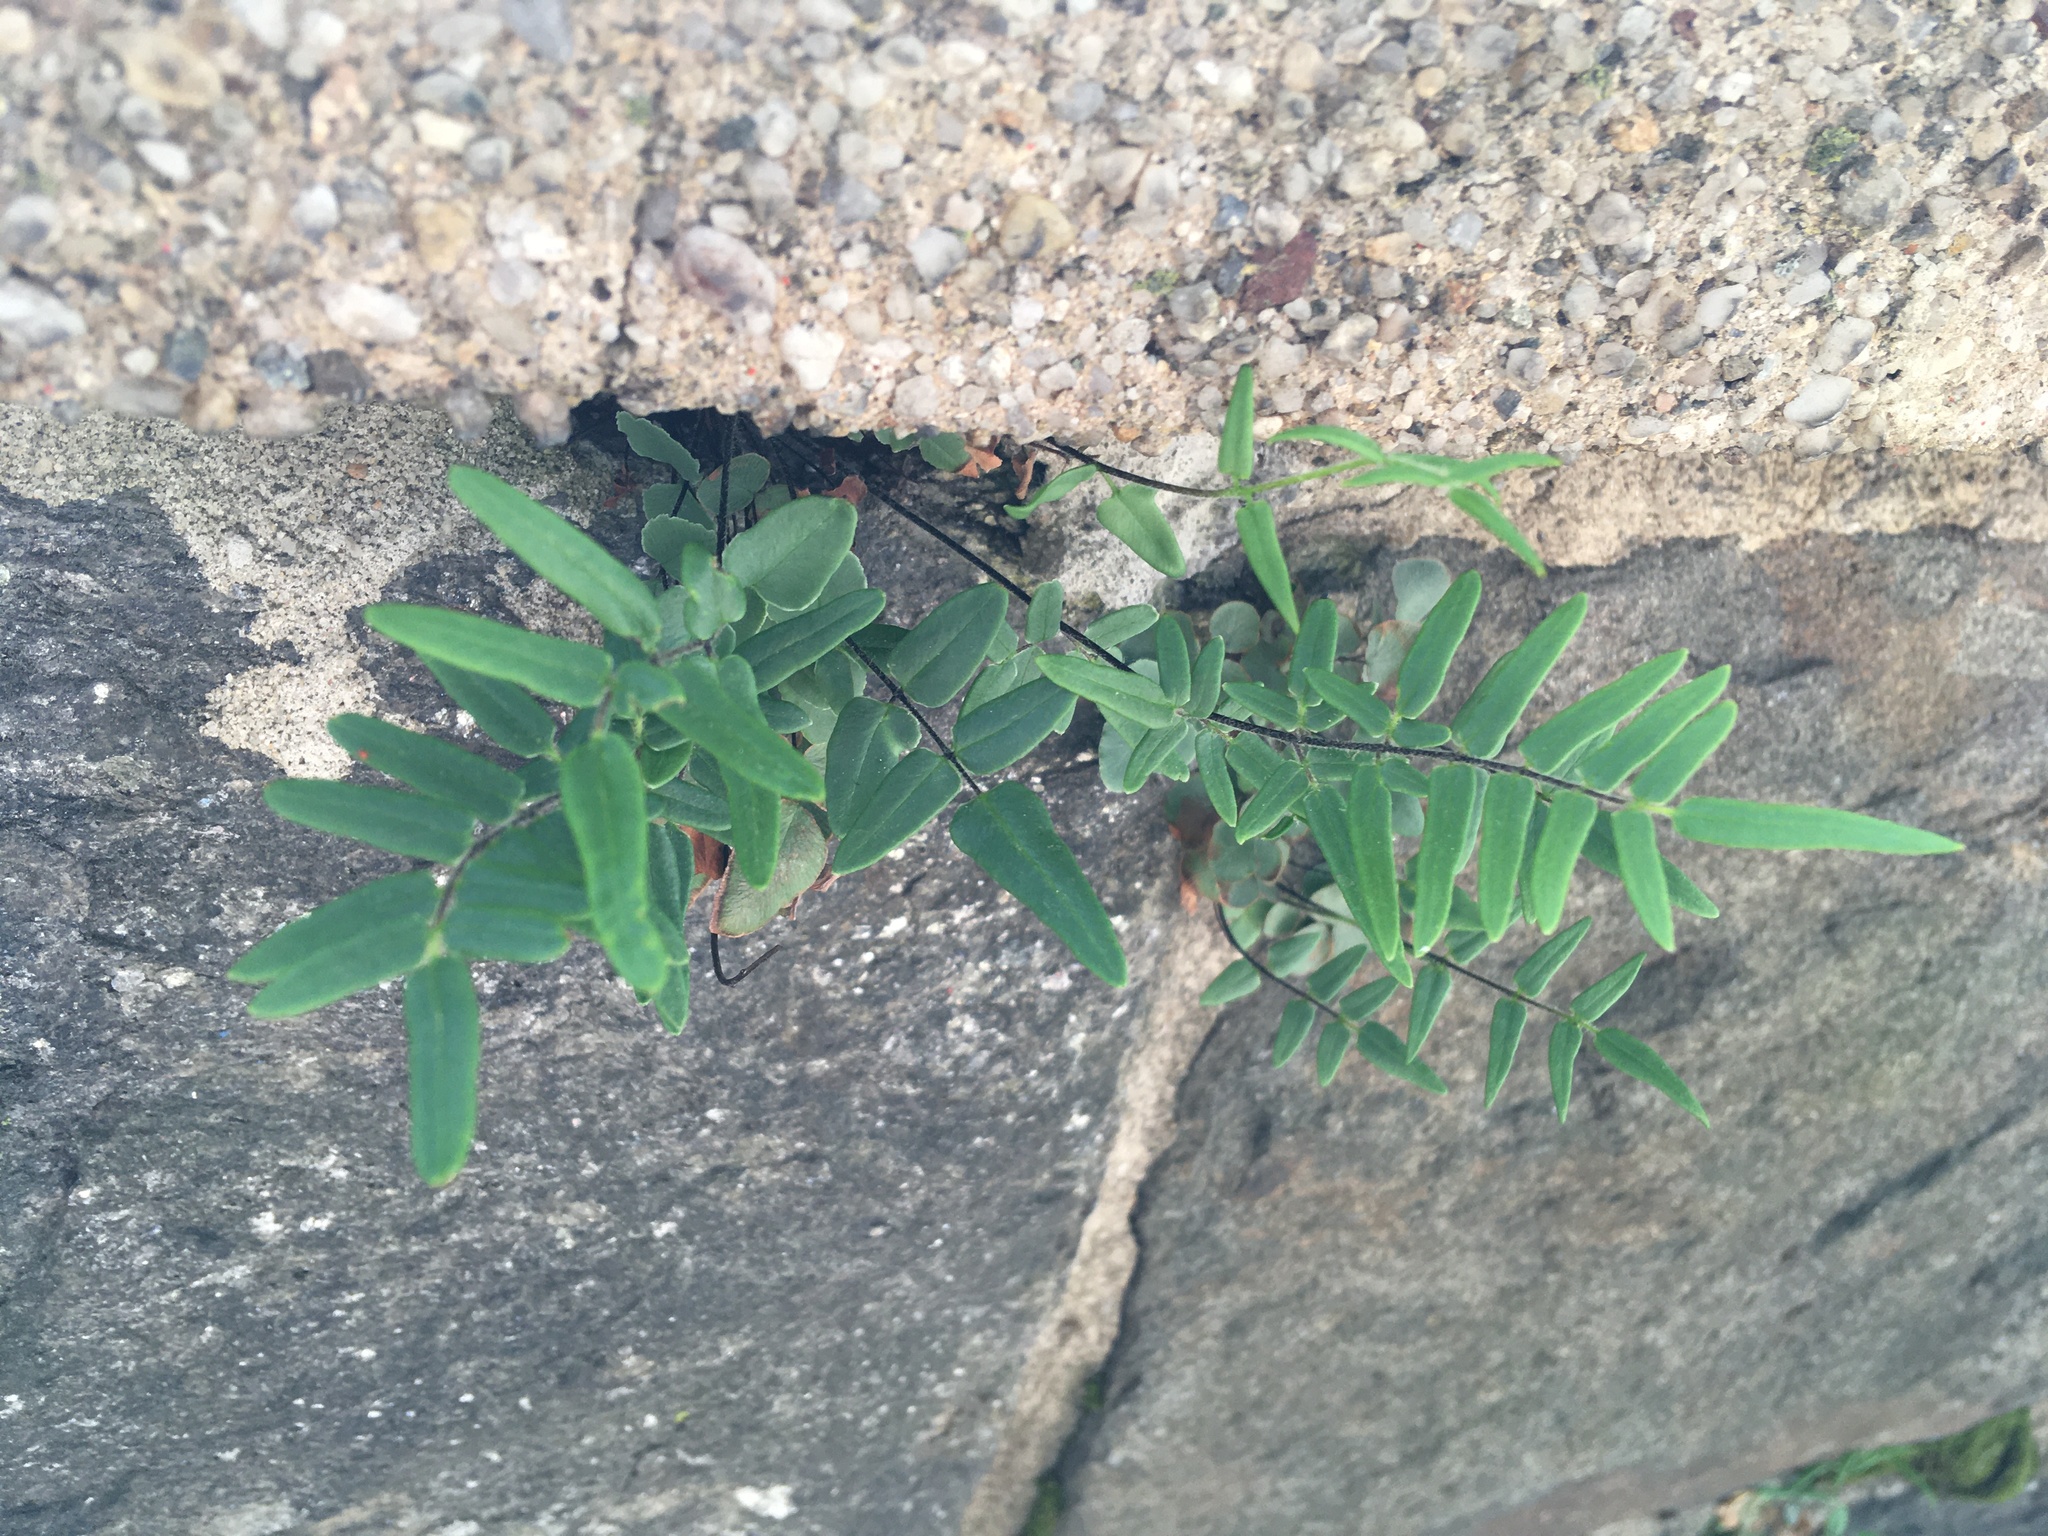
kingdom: Plantae
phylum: Tracheophyta
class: Polypodiopsida
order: Polypodiales
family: Pteridaceae
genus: Pellaea
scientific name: Pellaea atropurpurea
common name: Hairy cliffbrake
